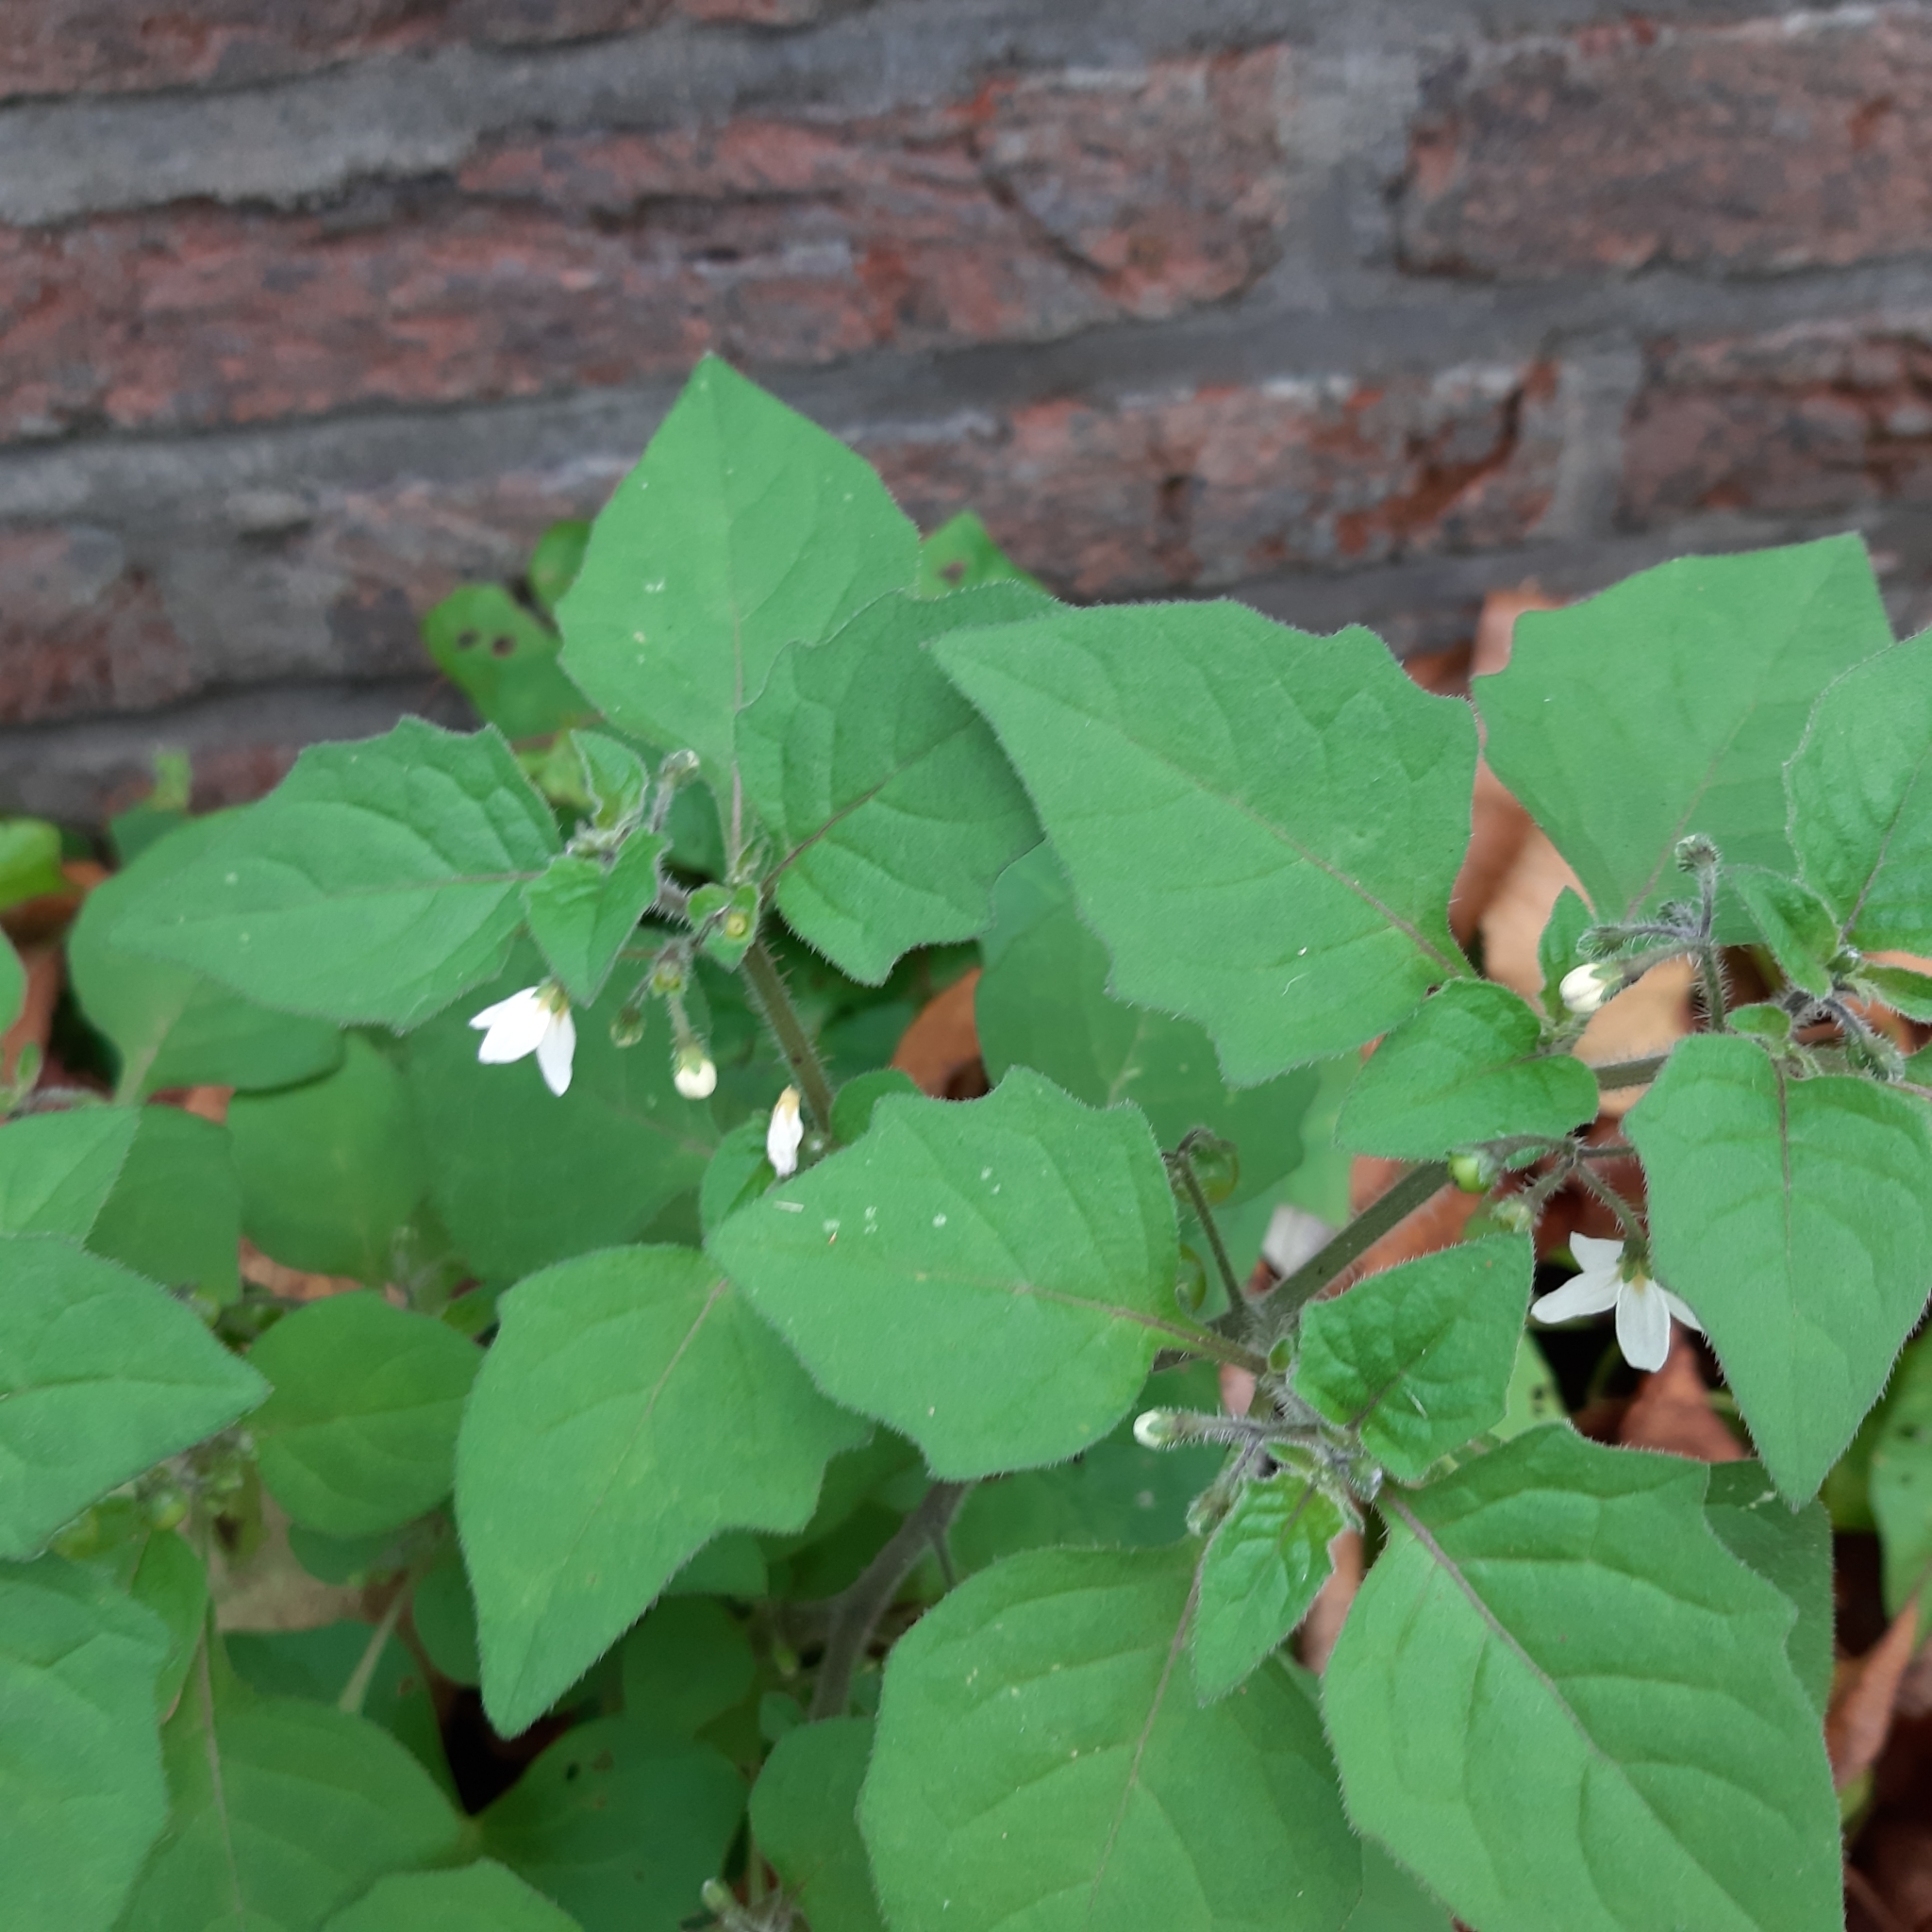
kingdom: Plantae
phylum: Tracheophyta
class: Magnoliopsida
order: Solanales
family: Solanaceae
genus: Solanum
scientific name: Solanum nigrum
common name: Black nightshade
